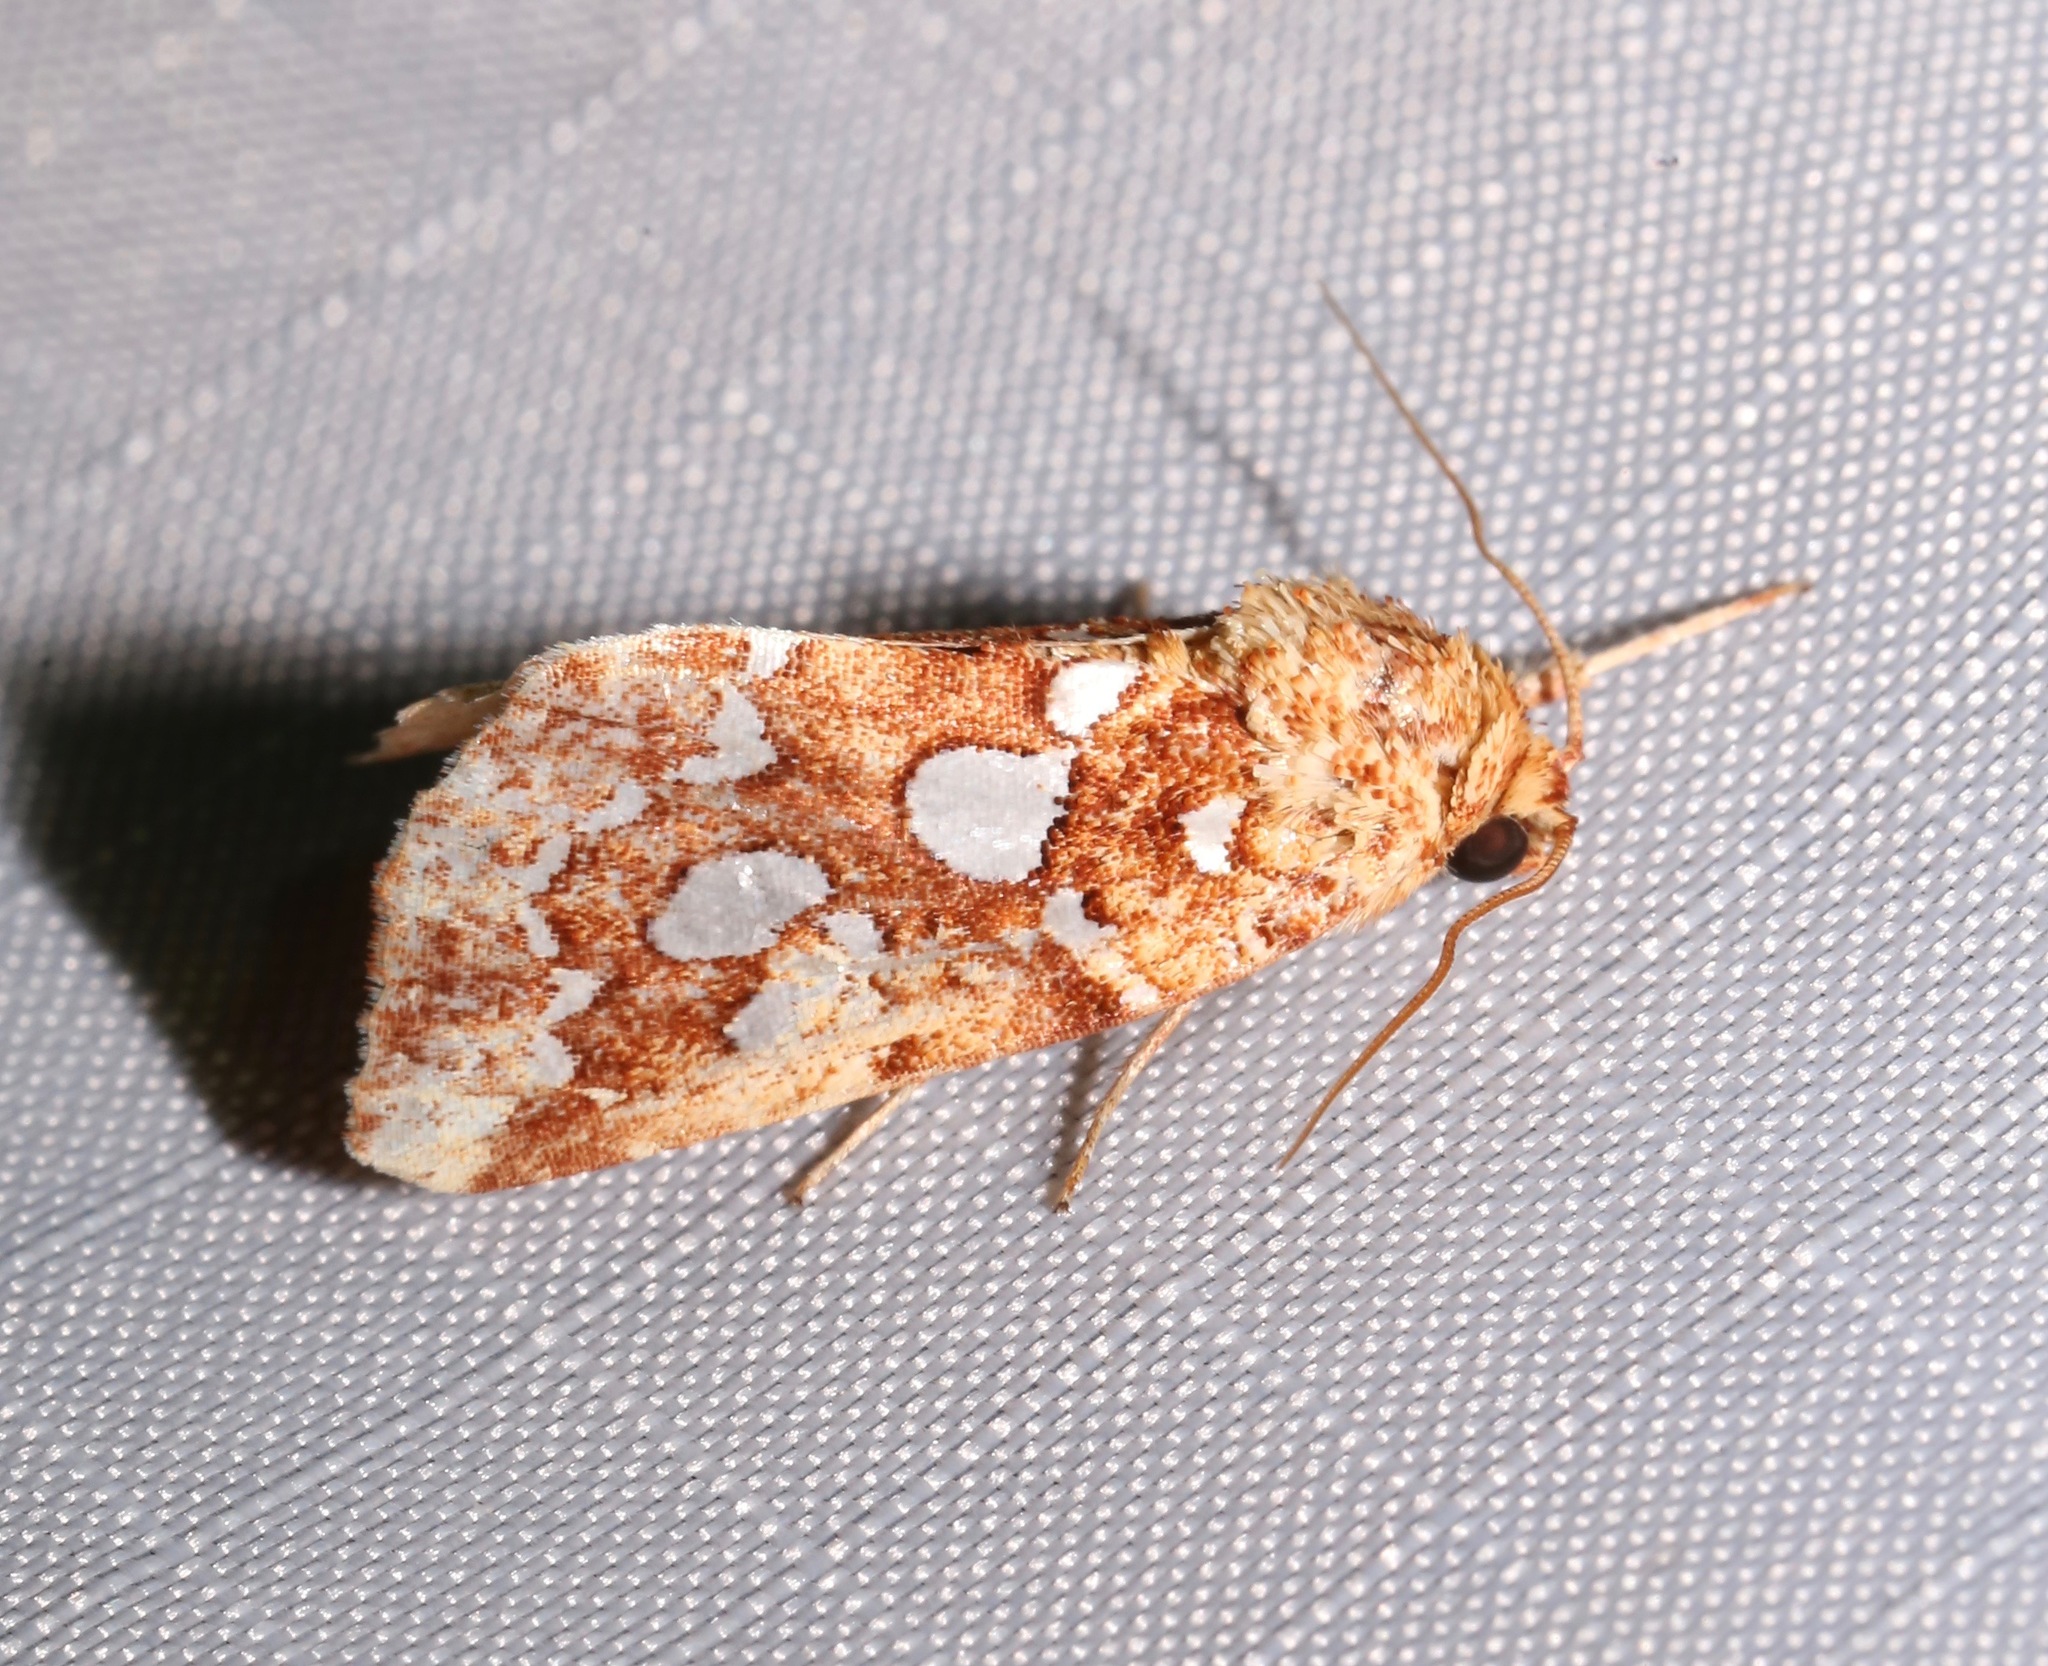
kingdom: Animalia
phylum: Arthropoda
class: Insecta
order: Lepidoptera
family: Noctuidae
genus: Callopistria
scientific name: Callopistria cordata
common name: Silver-spotted fern moth
